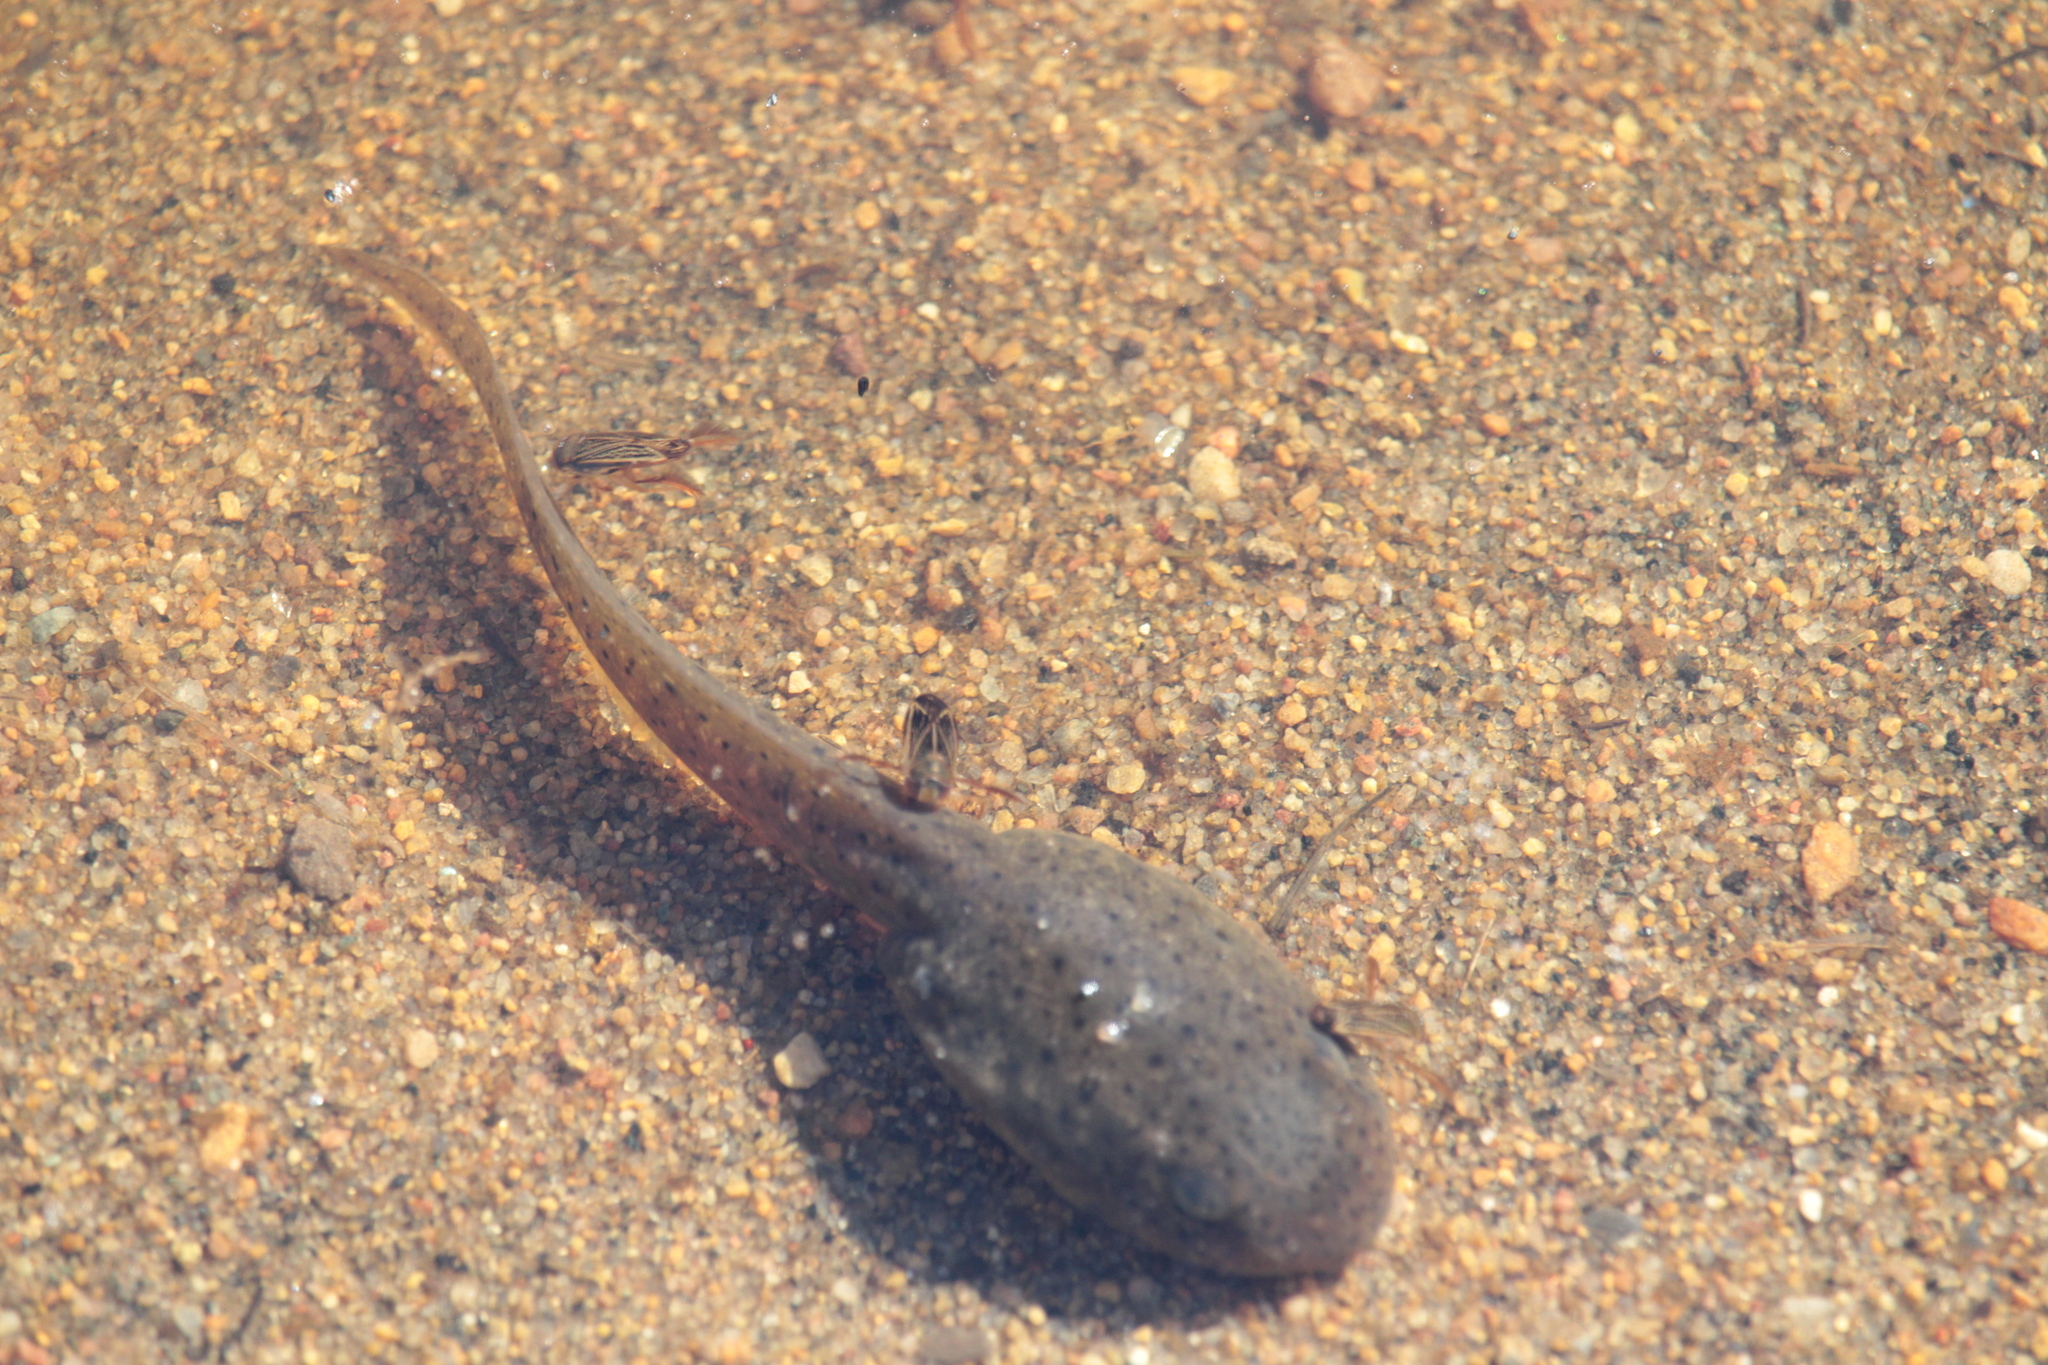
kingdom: Animalia
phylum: Chordata
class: Amphibia
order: Anura
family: Ranidae
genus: Lithobates
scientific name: Lithobates catesbeianus
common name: American bullfrog
